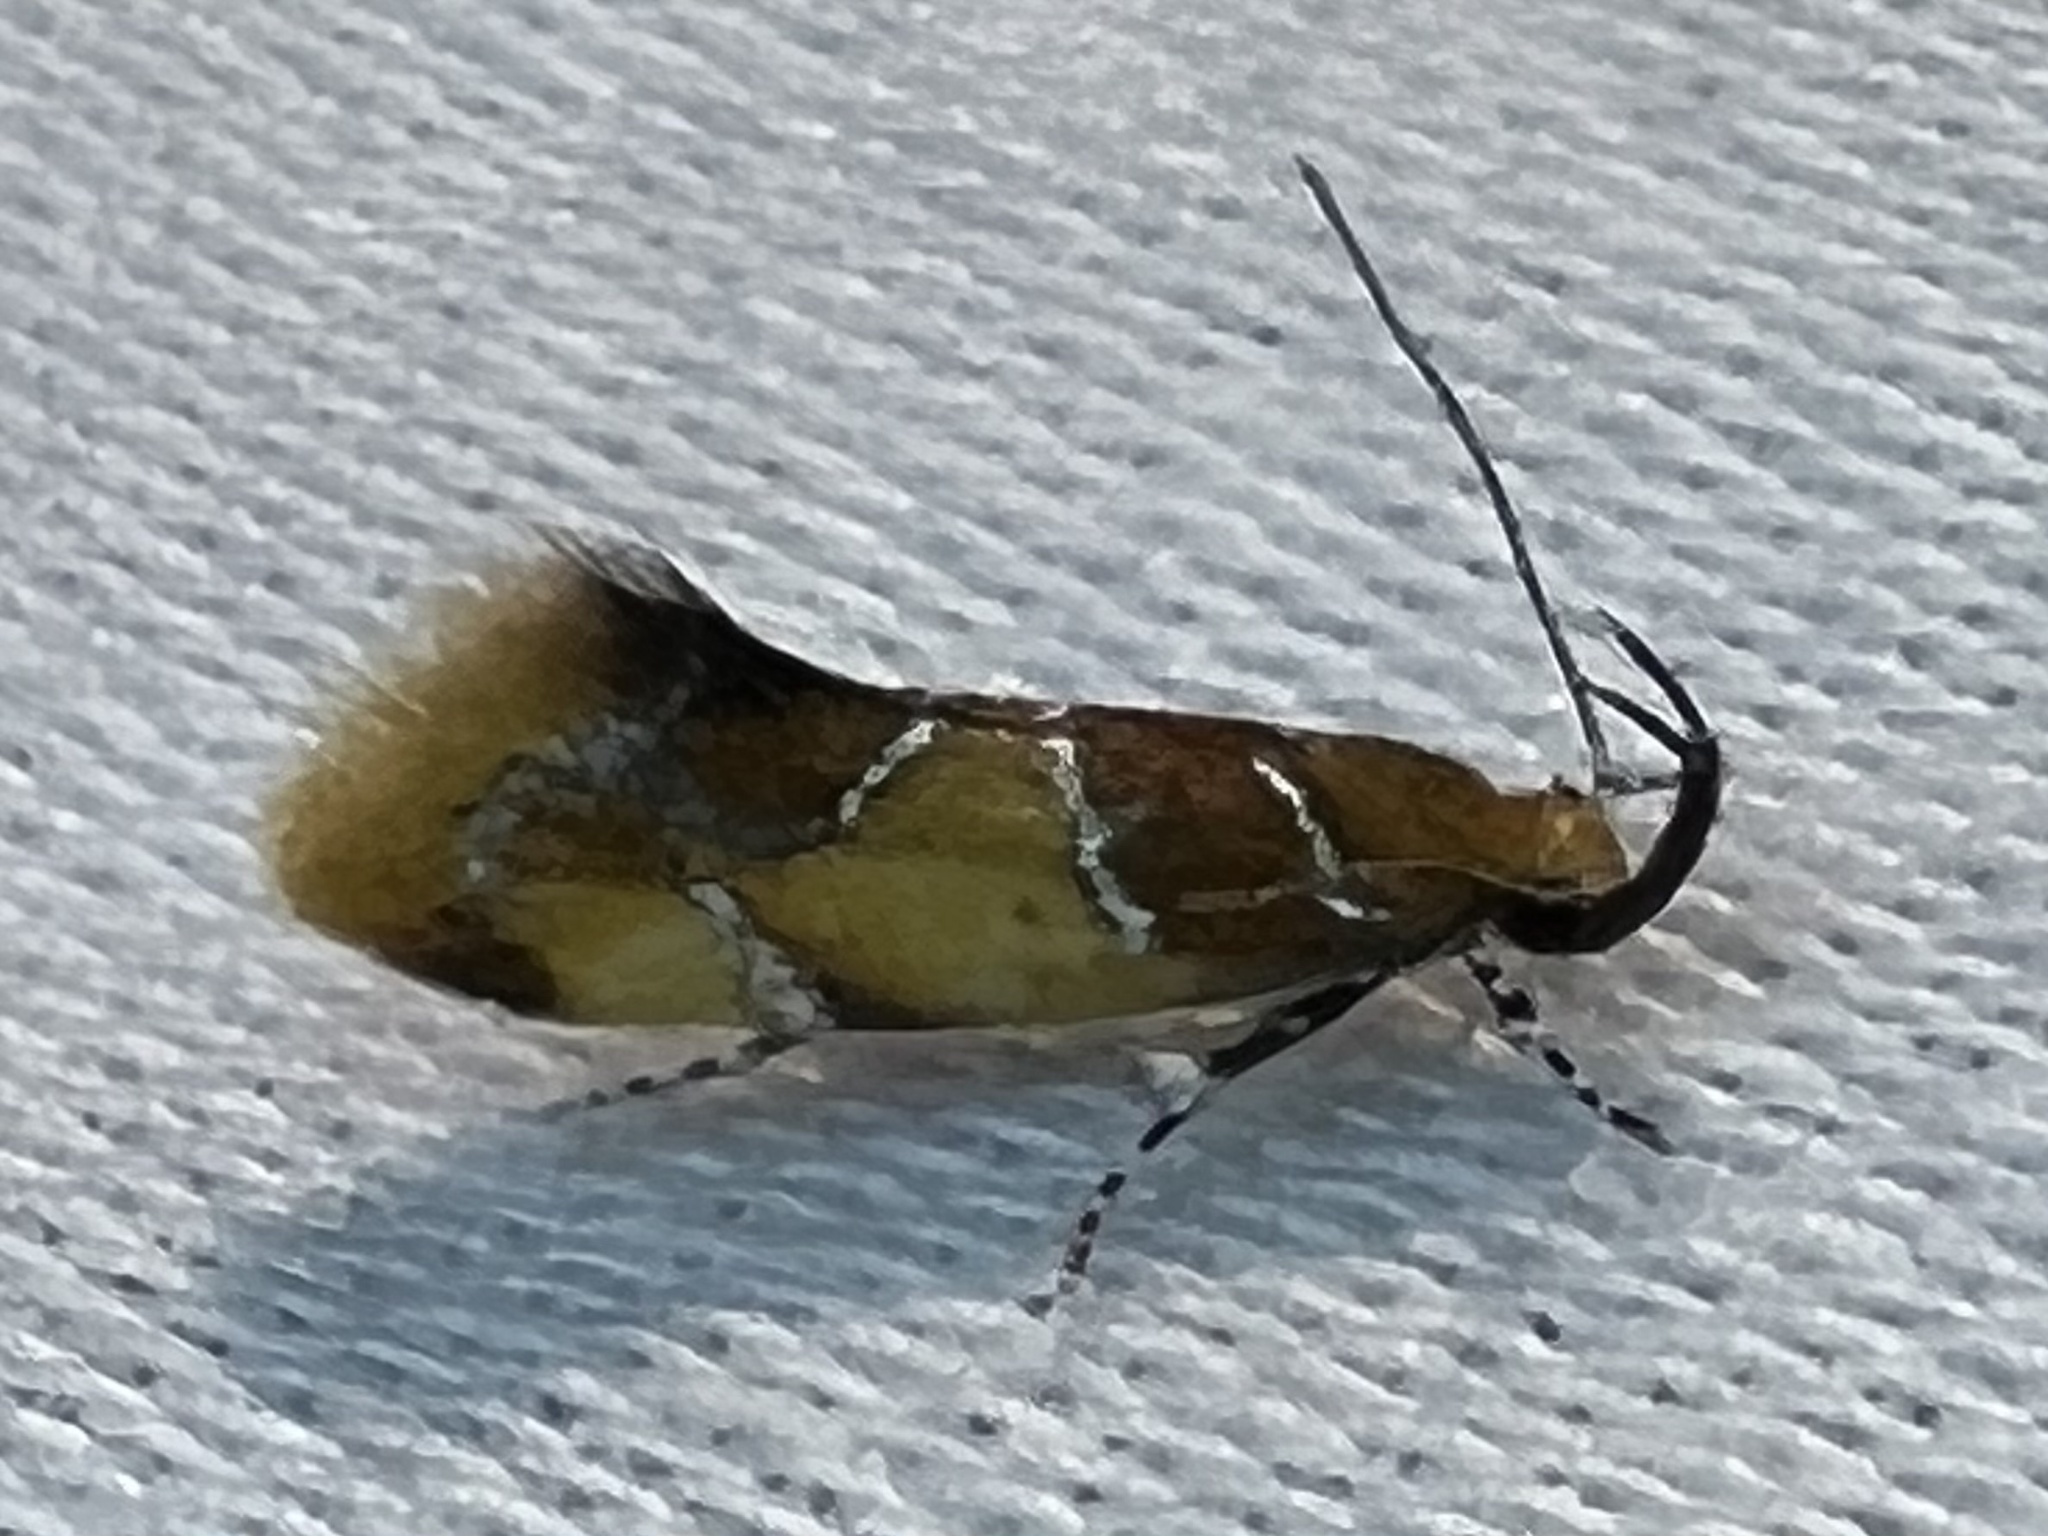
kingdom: Animalia
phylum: Arthropoda
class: Insecta
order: Lepidoptera
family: Oecophoridae
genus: Callima
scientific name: Callima argenticinctella
